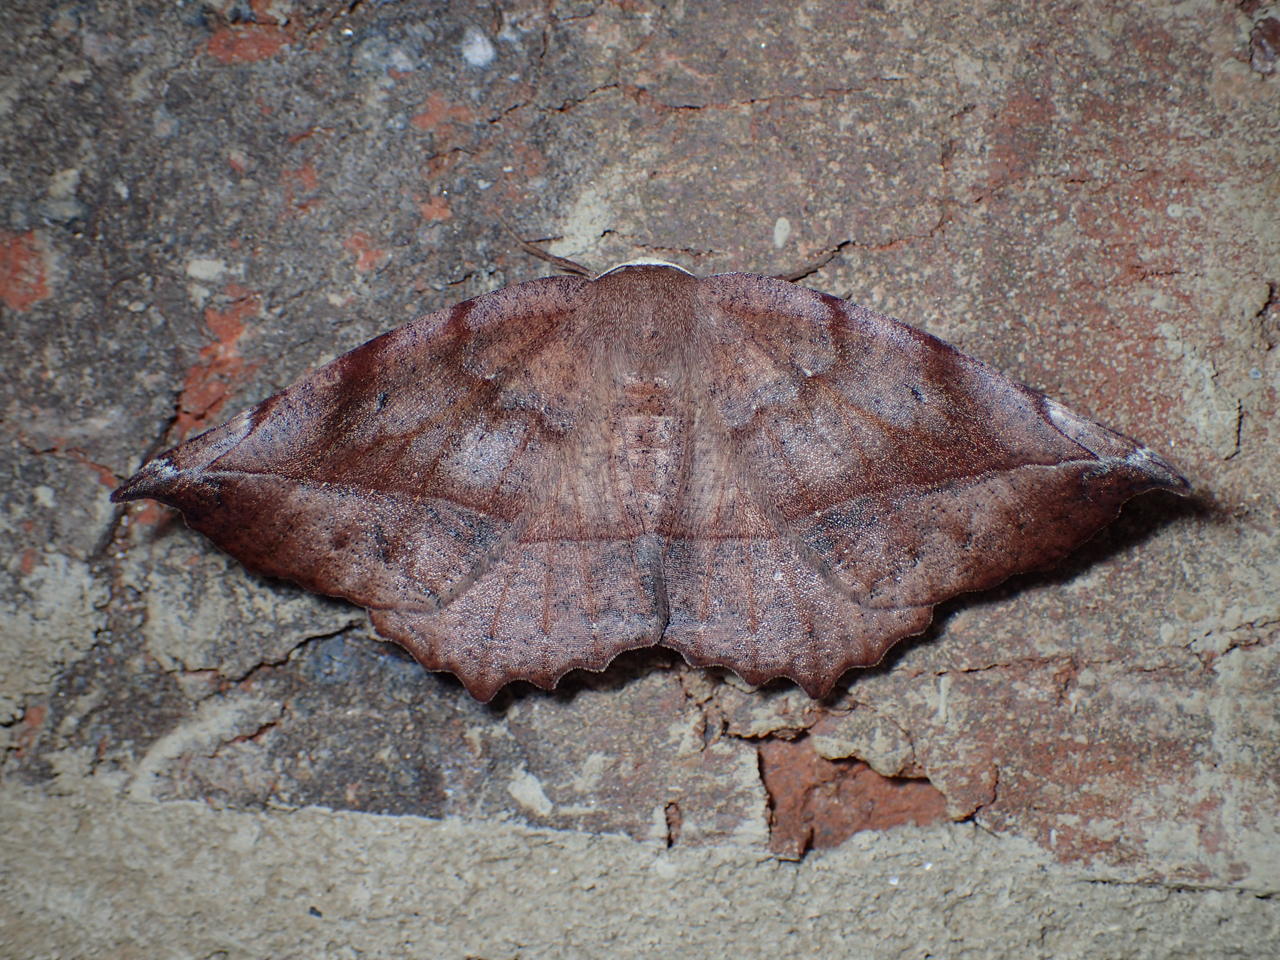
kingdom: Animalia
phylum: Arthropoda
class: Insecta
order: Lepidoptera
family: Geometridae
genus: Eutrapela
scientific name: Eutrapela clemataria
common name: Curved-toothed geometer
